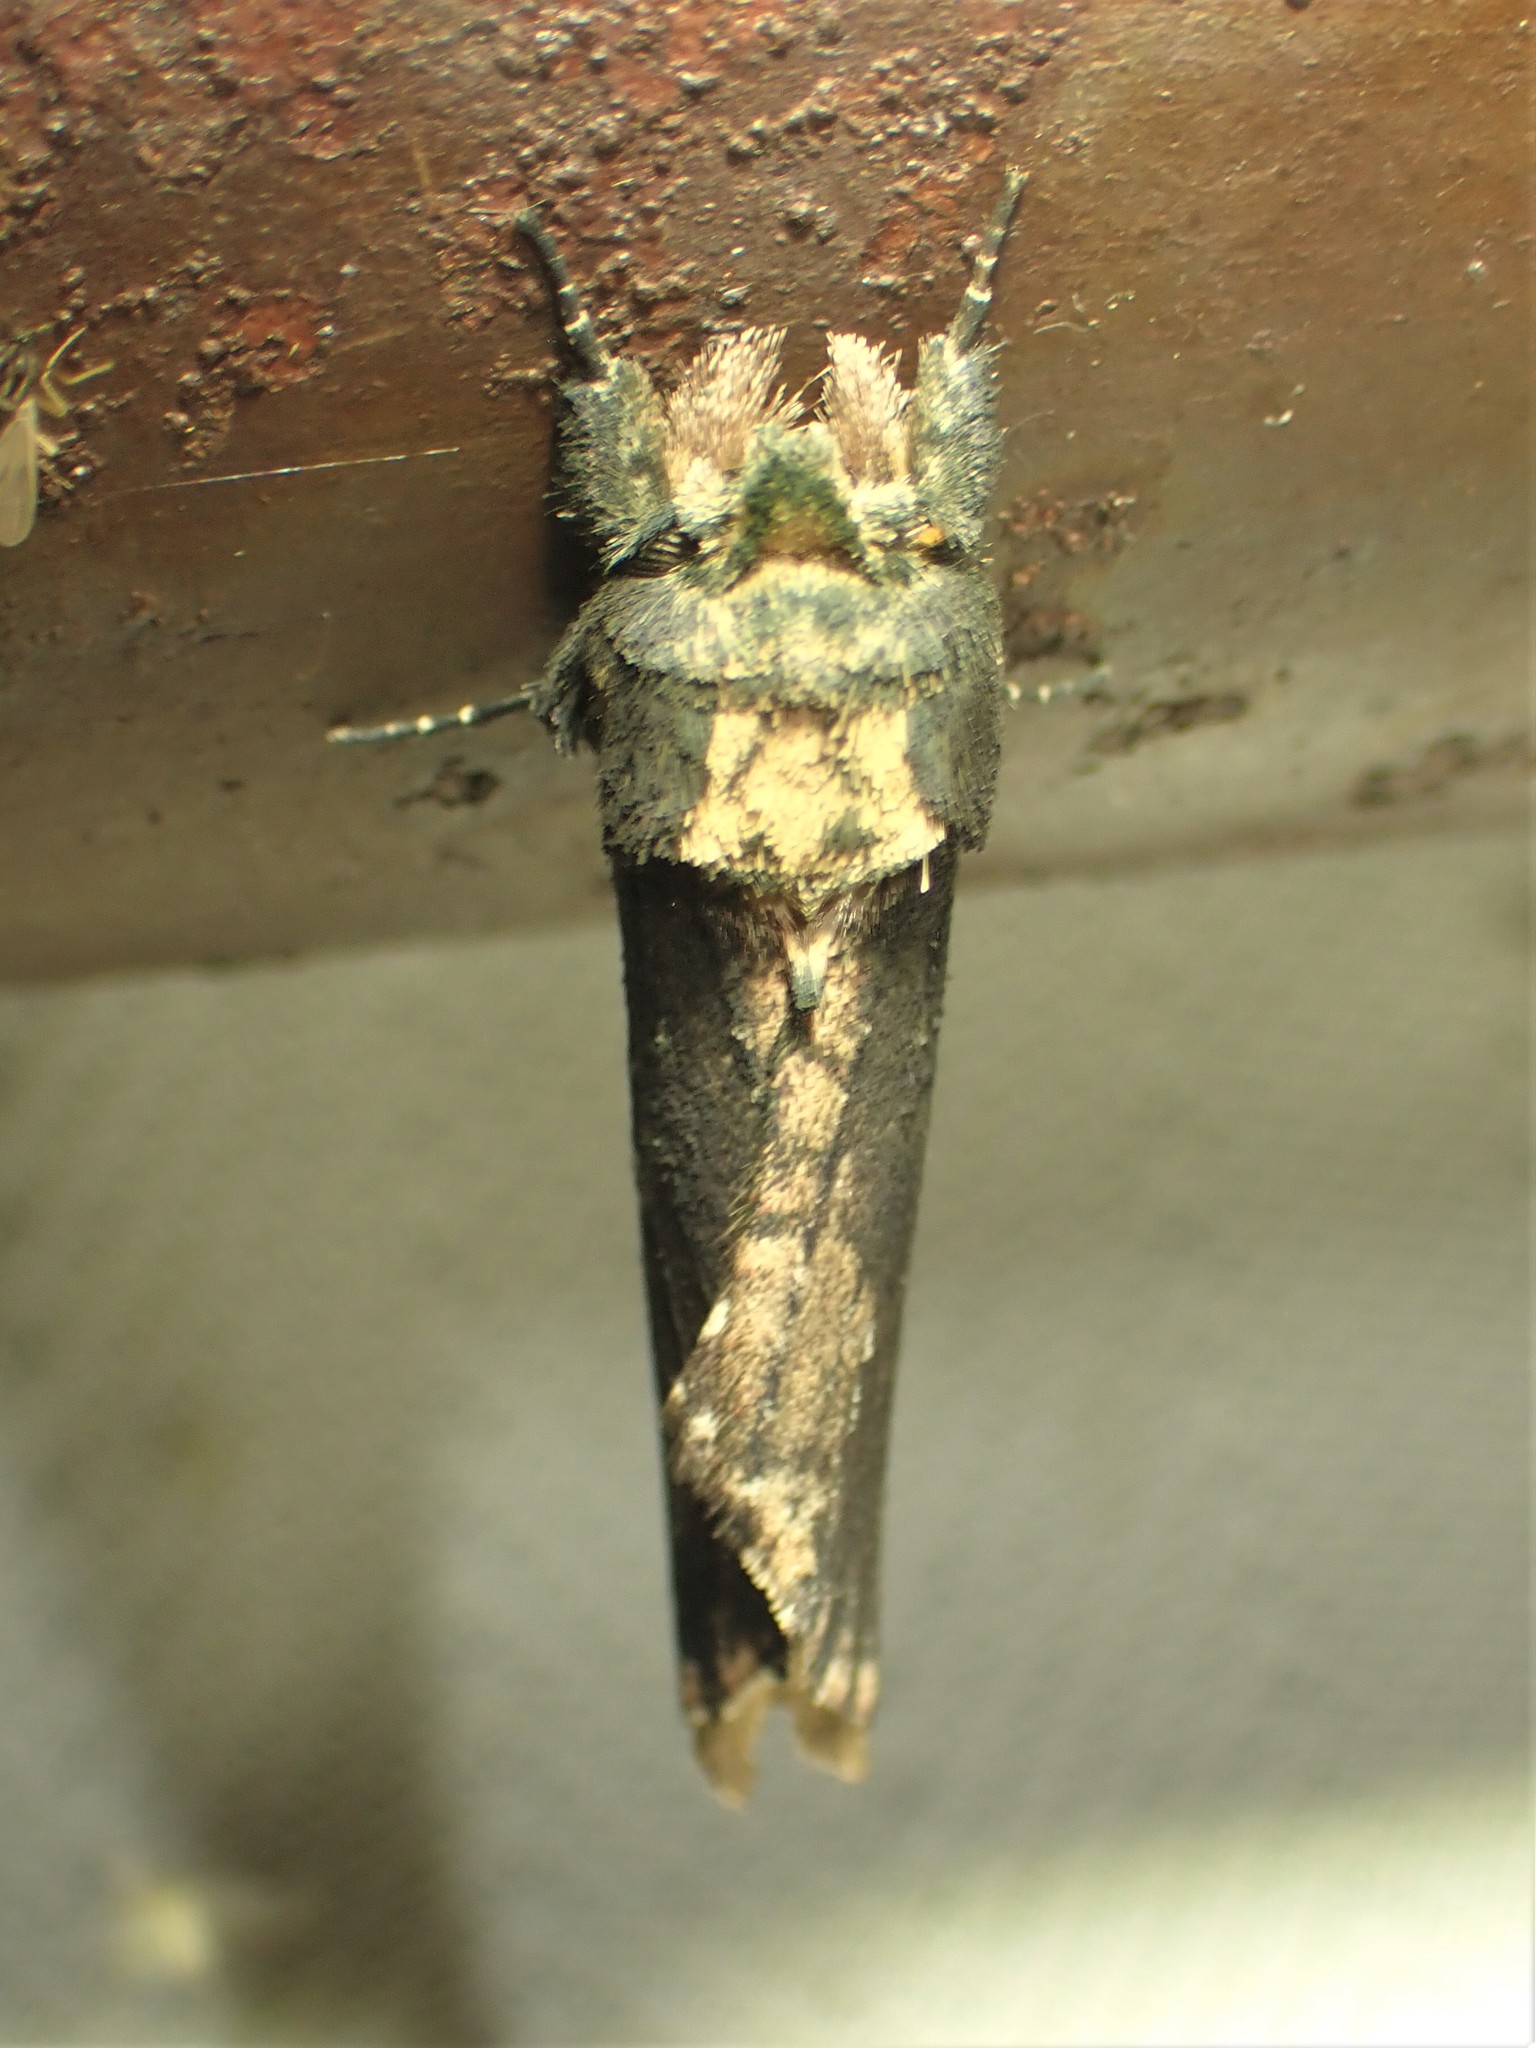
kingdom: Animalia
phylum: Arthropoda
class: Insecta
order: Lepidoptera
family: Notodontidae
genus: Schizura
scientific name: Schizura ipomaeae
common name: Morning-glory prominent
